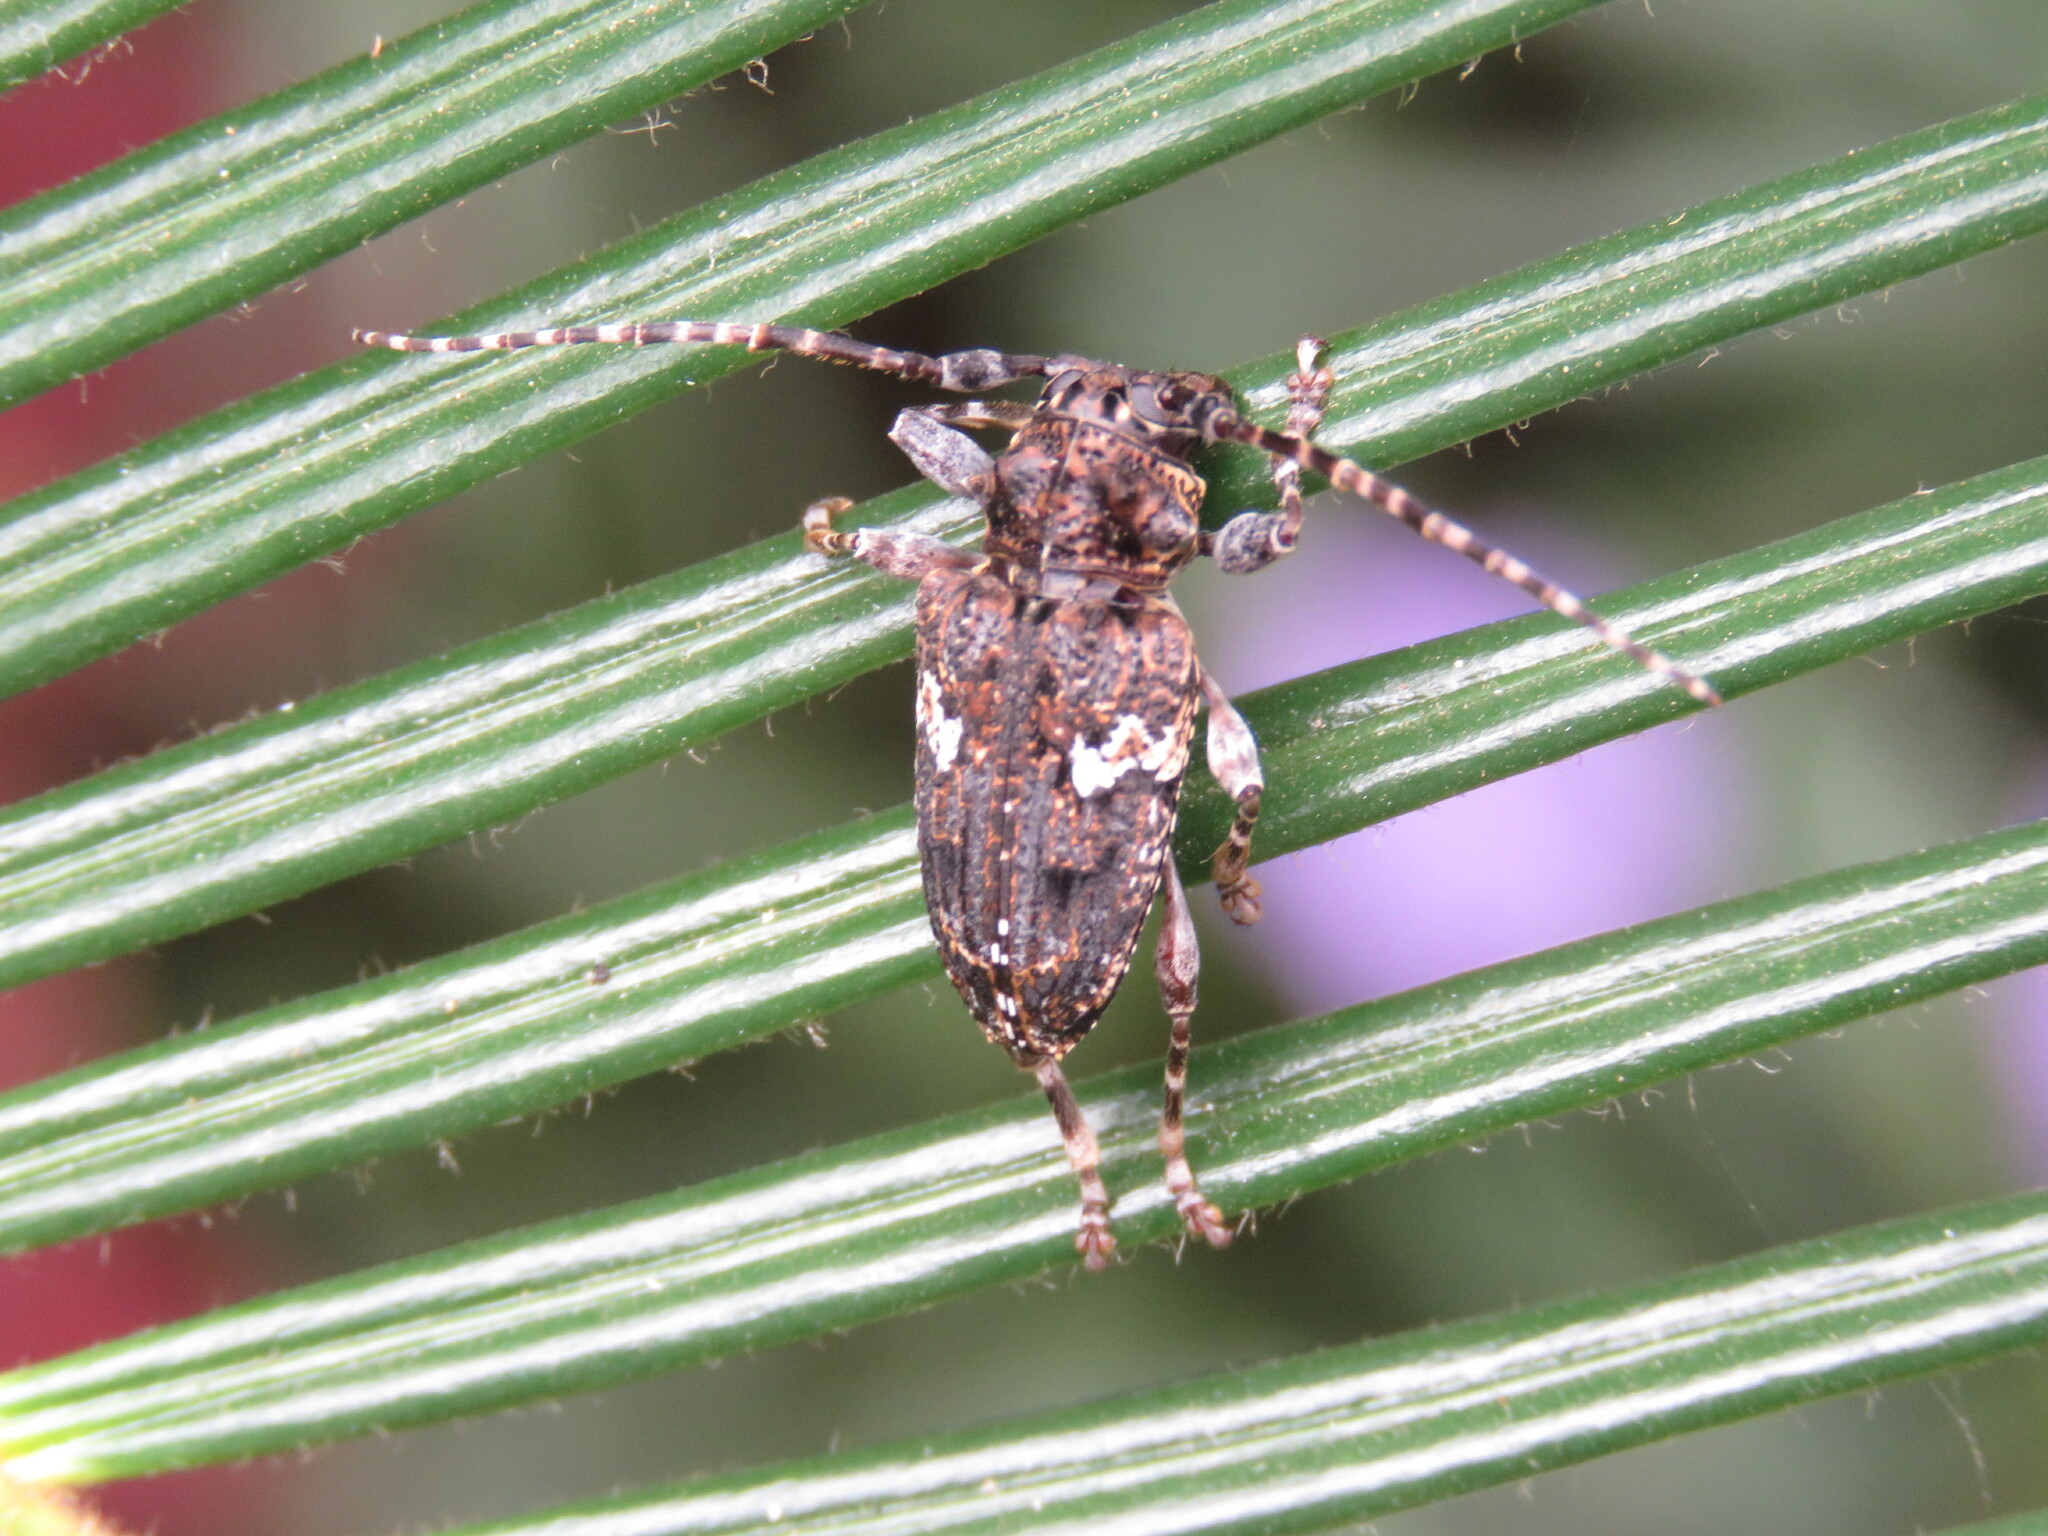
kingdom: Animalia
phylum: Arthropoda
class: Insecta
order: Coleoptera
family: Cerambycidae
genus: Psapharochrus
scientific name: Psapharochrus circumflexus
